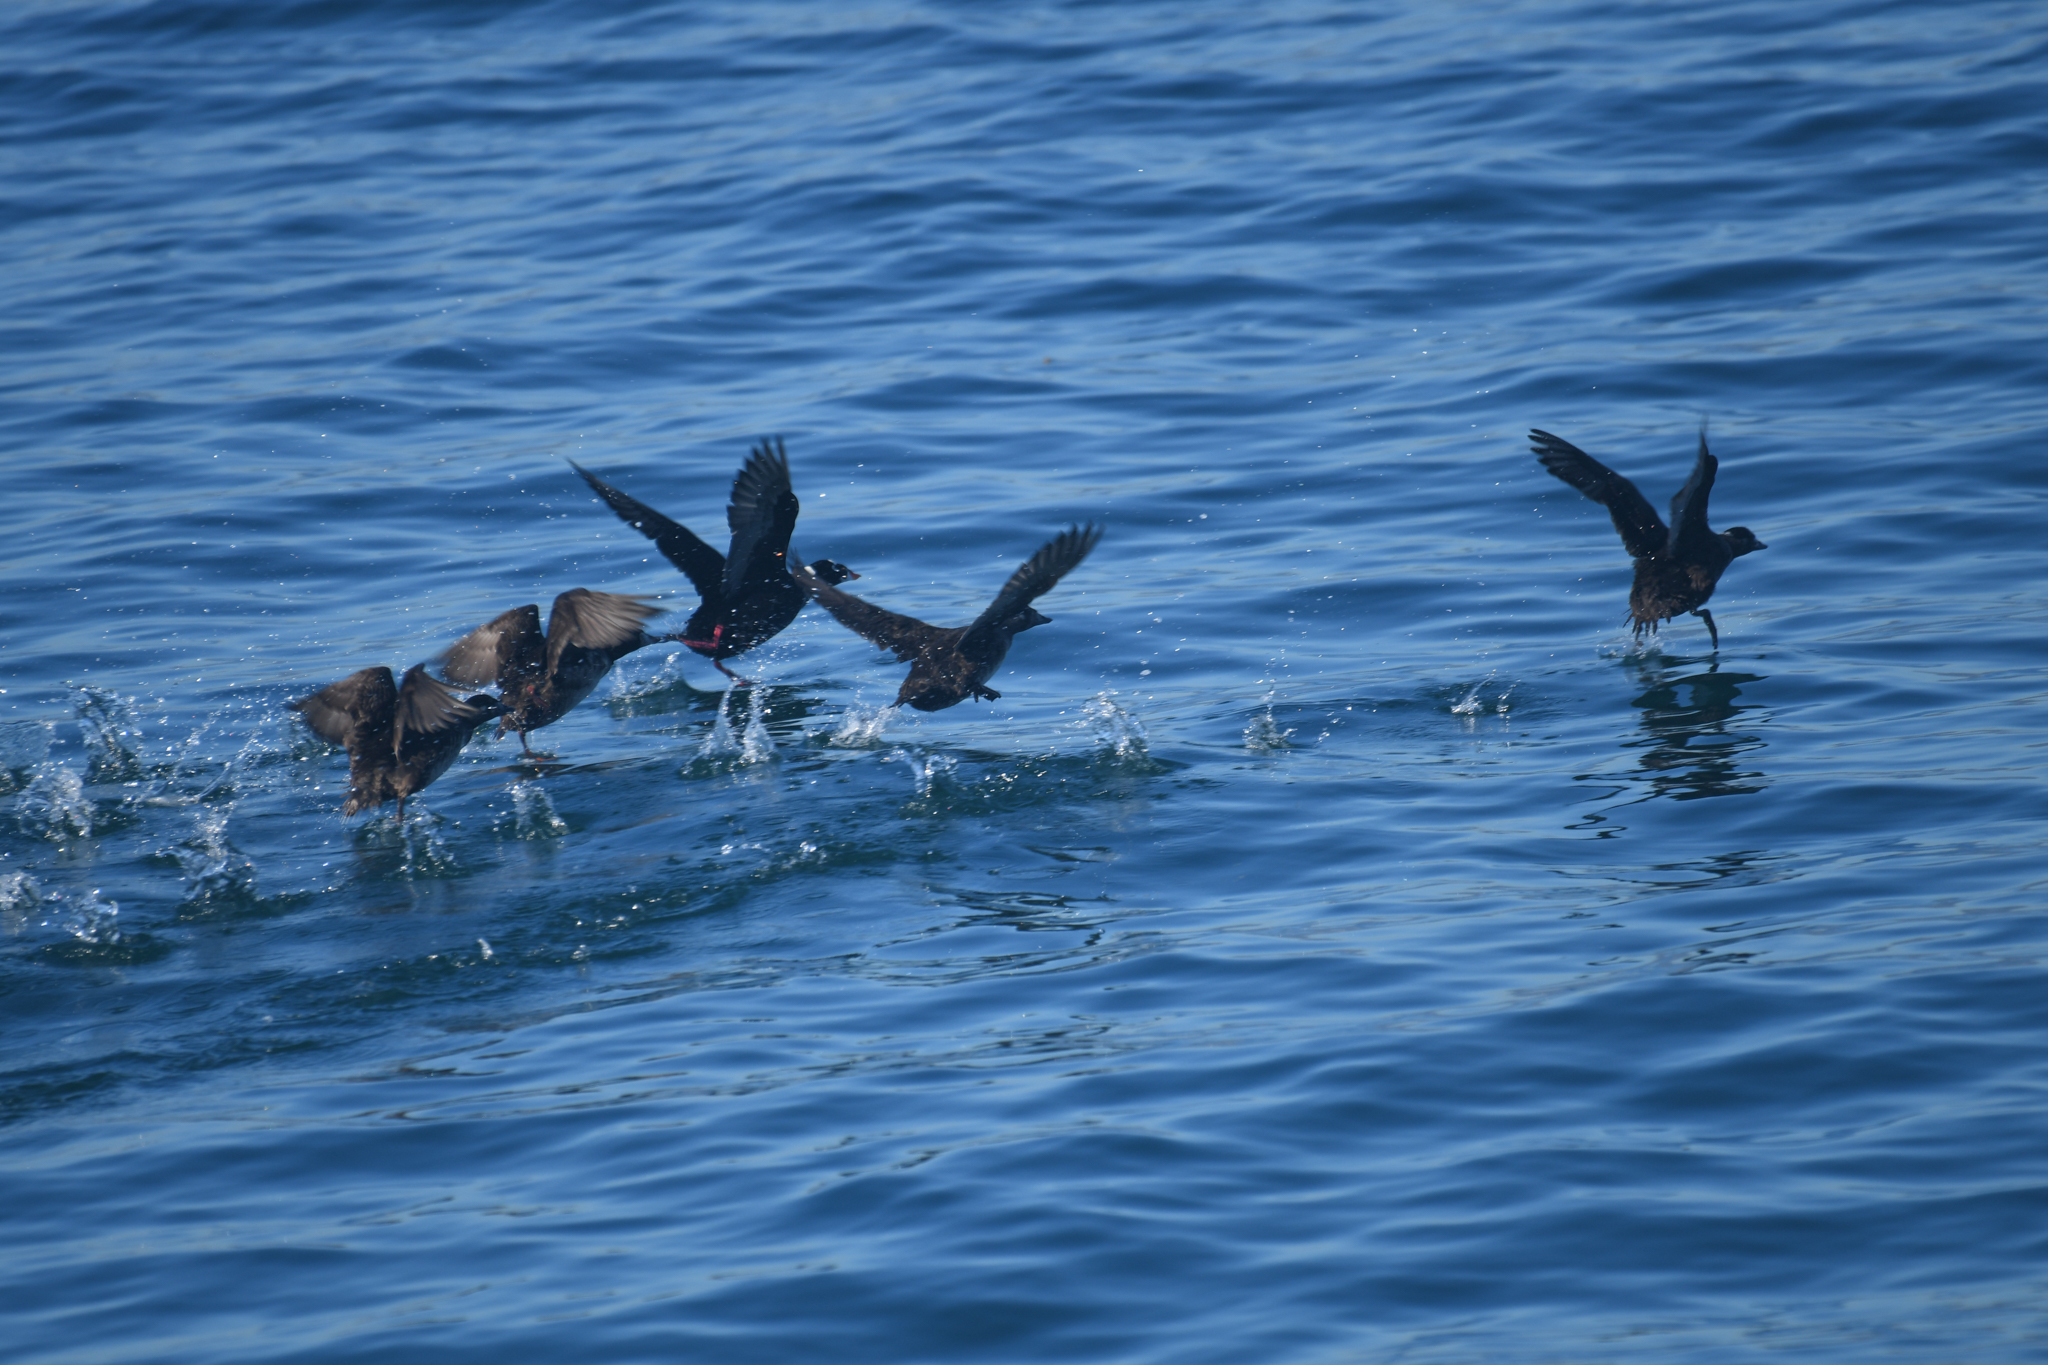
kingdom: Animalia
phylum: Chordata
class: Aves
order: Anseriformes
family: Anatidae
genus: Melanitta
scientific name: Melanitta perspicillata
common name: Surf scoter
